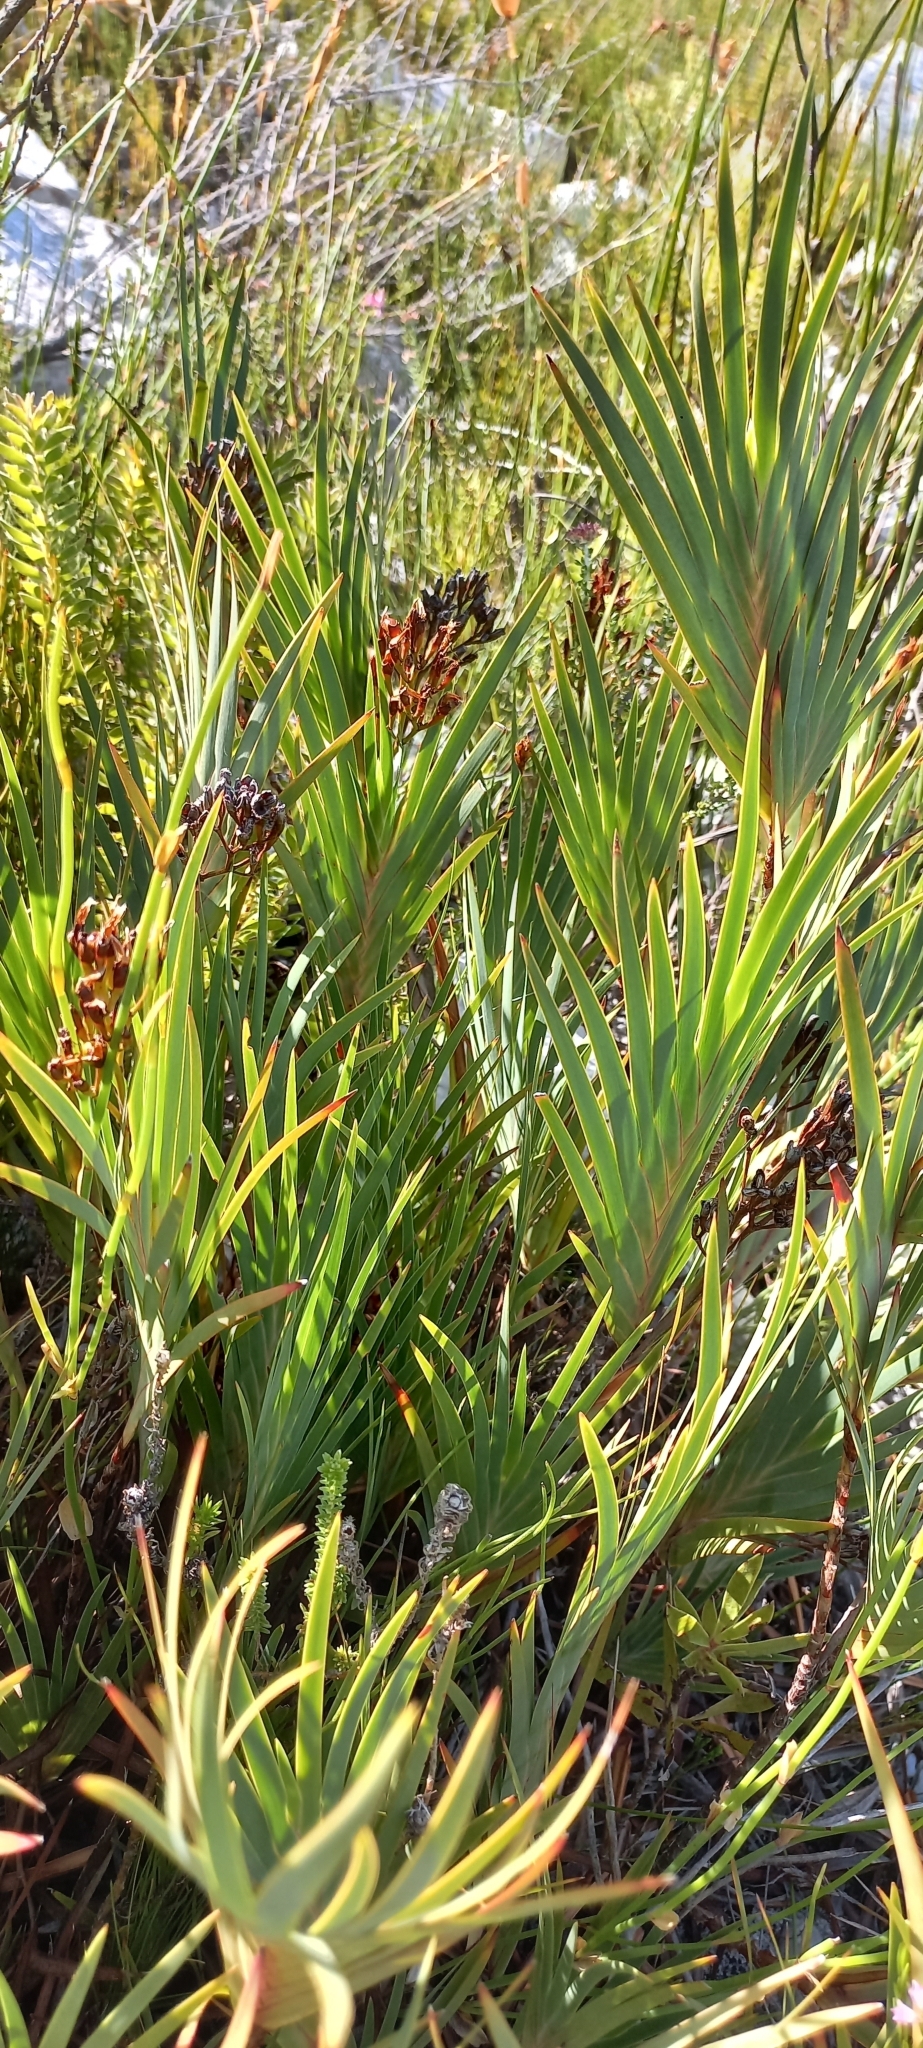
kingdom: Plantae
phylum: Tracheophyta
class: Liliopsida
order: Asparagales
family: Iridaceae
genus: Nivenia
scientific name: Nivenia stokoei
